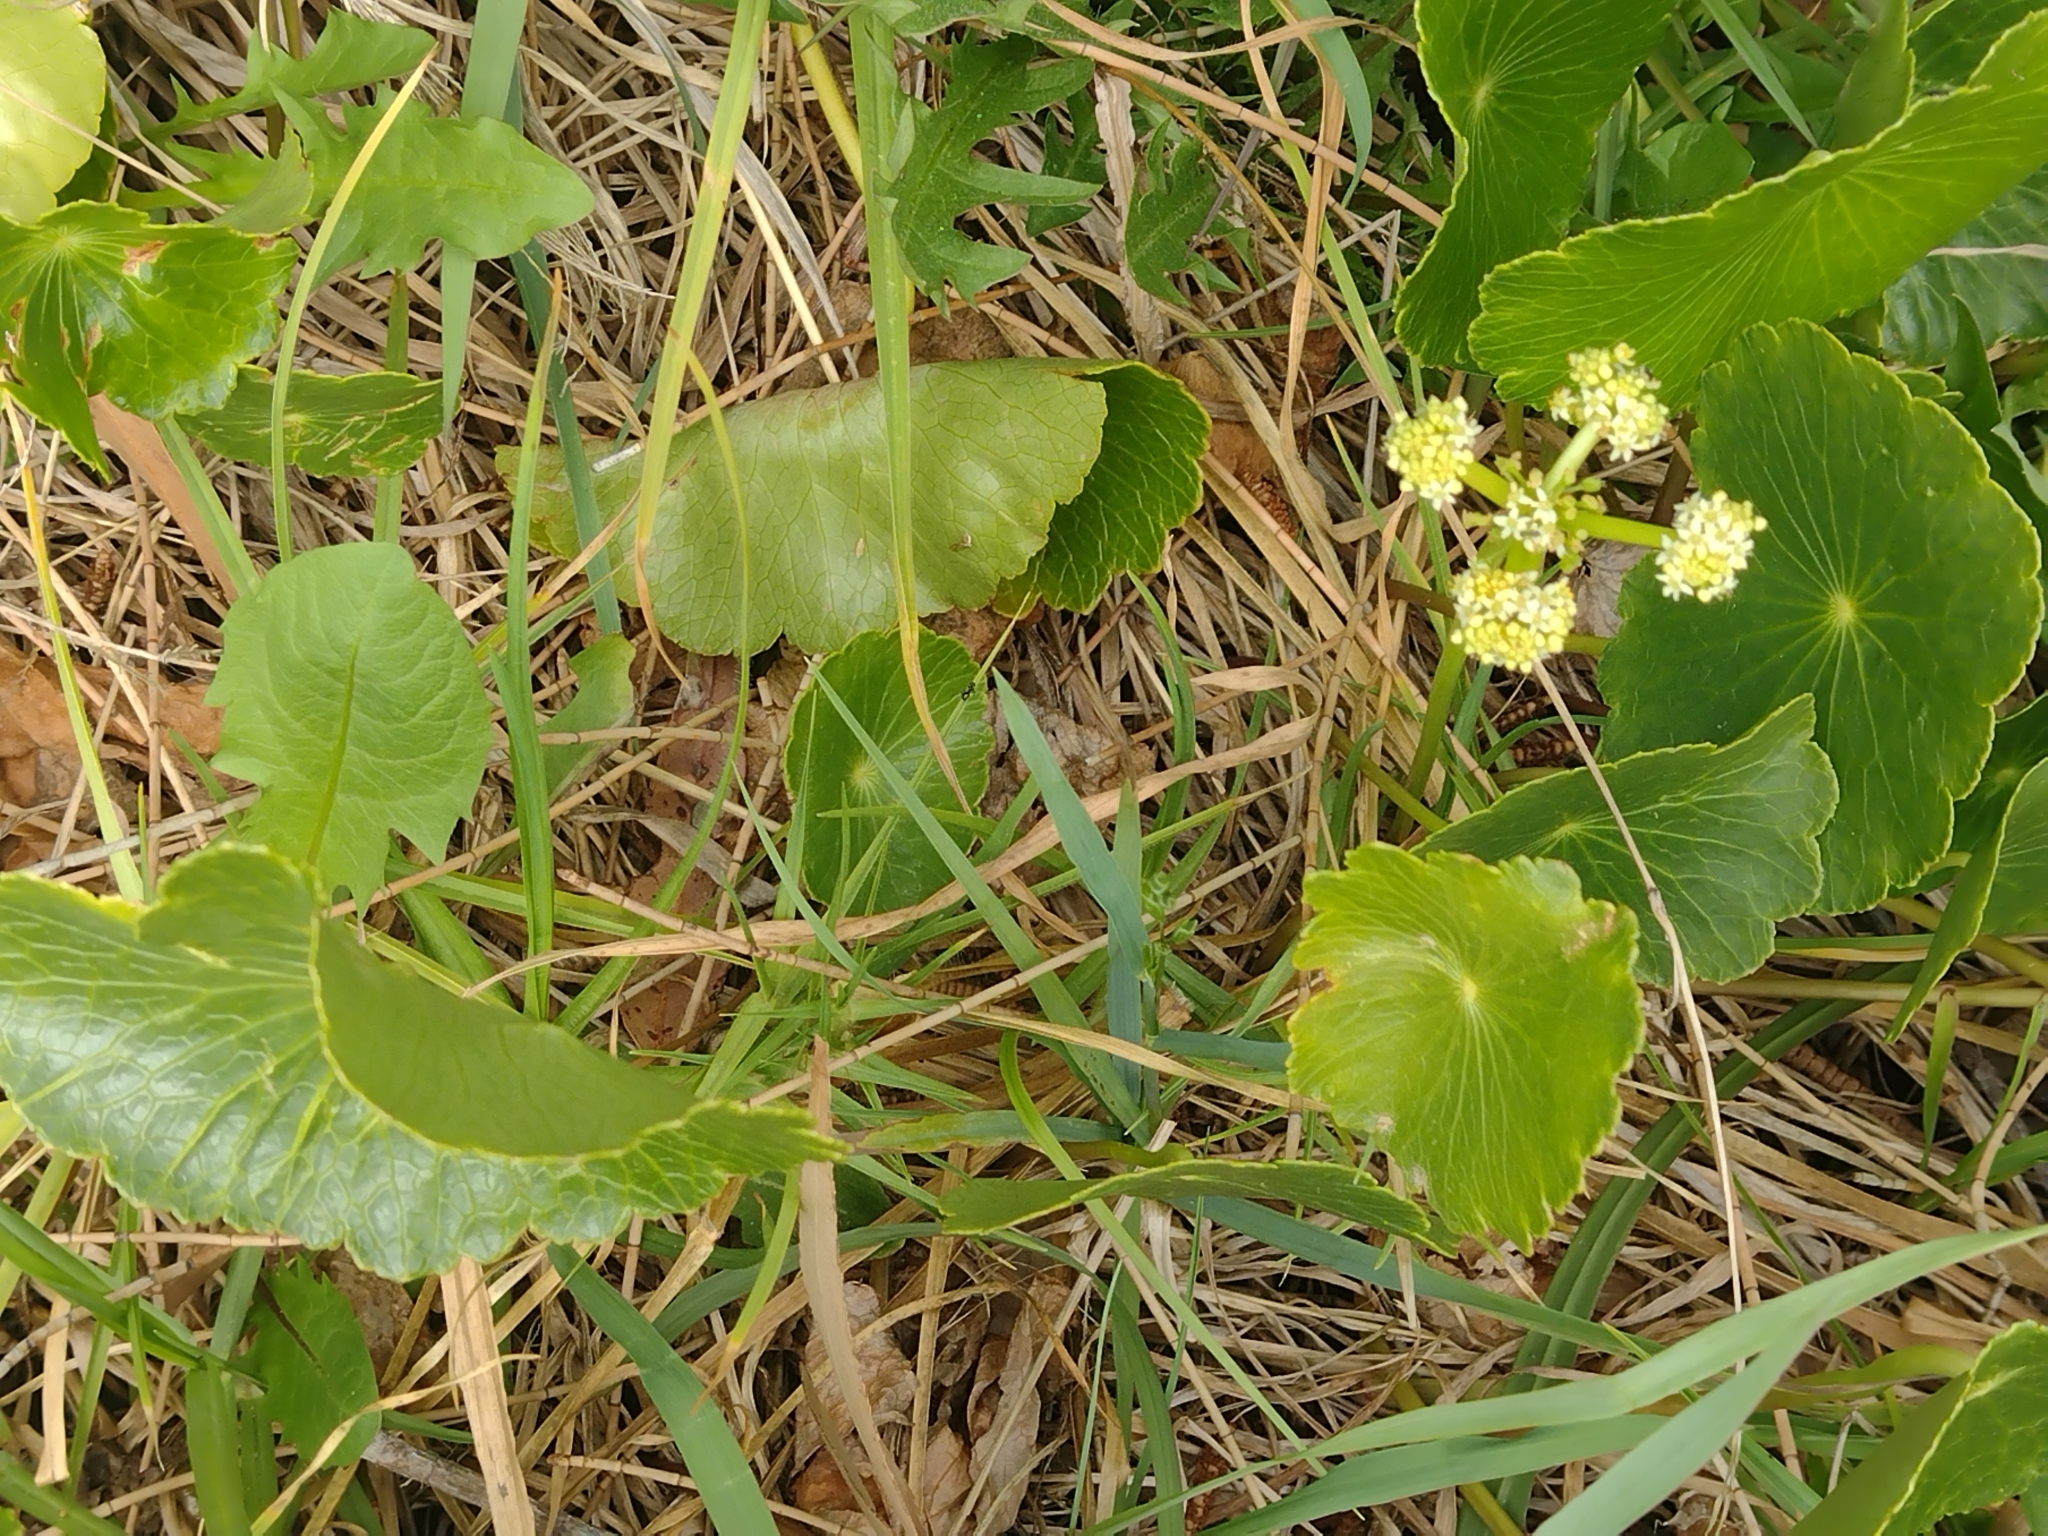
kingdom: Plantae
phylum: Tracheophyta
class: Magnoliopsida
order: Apiales
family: Araliaceae
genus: Hydrocotyle
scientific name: Hydrocotyle bonariensis
